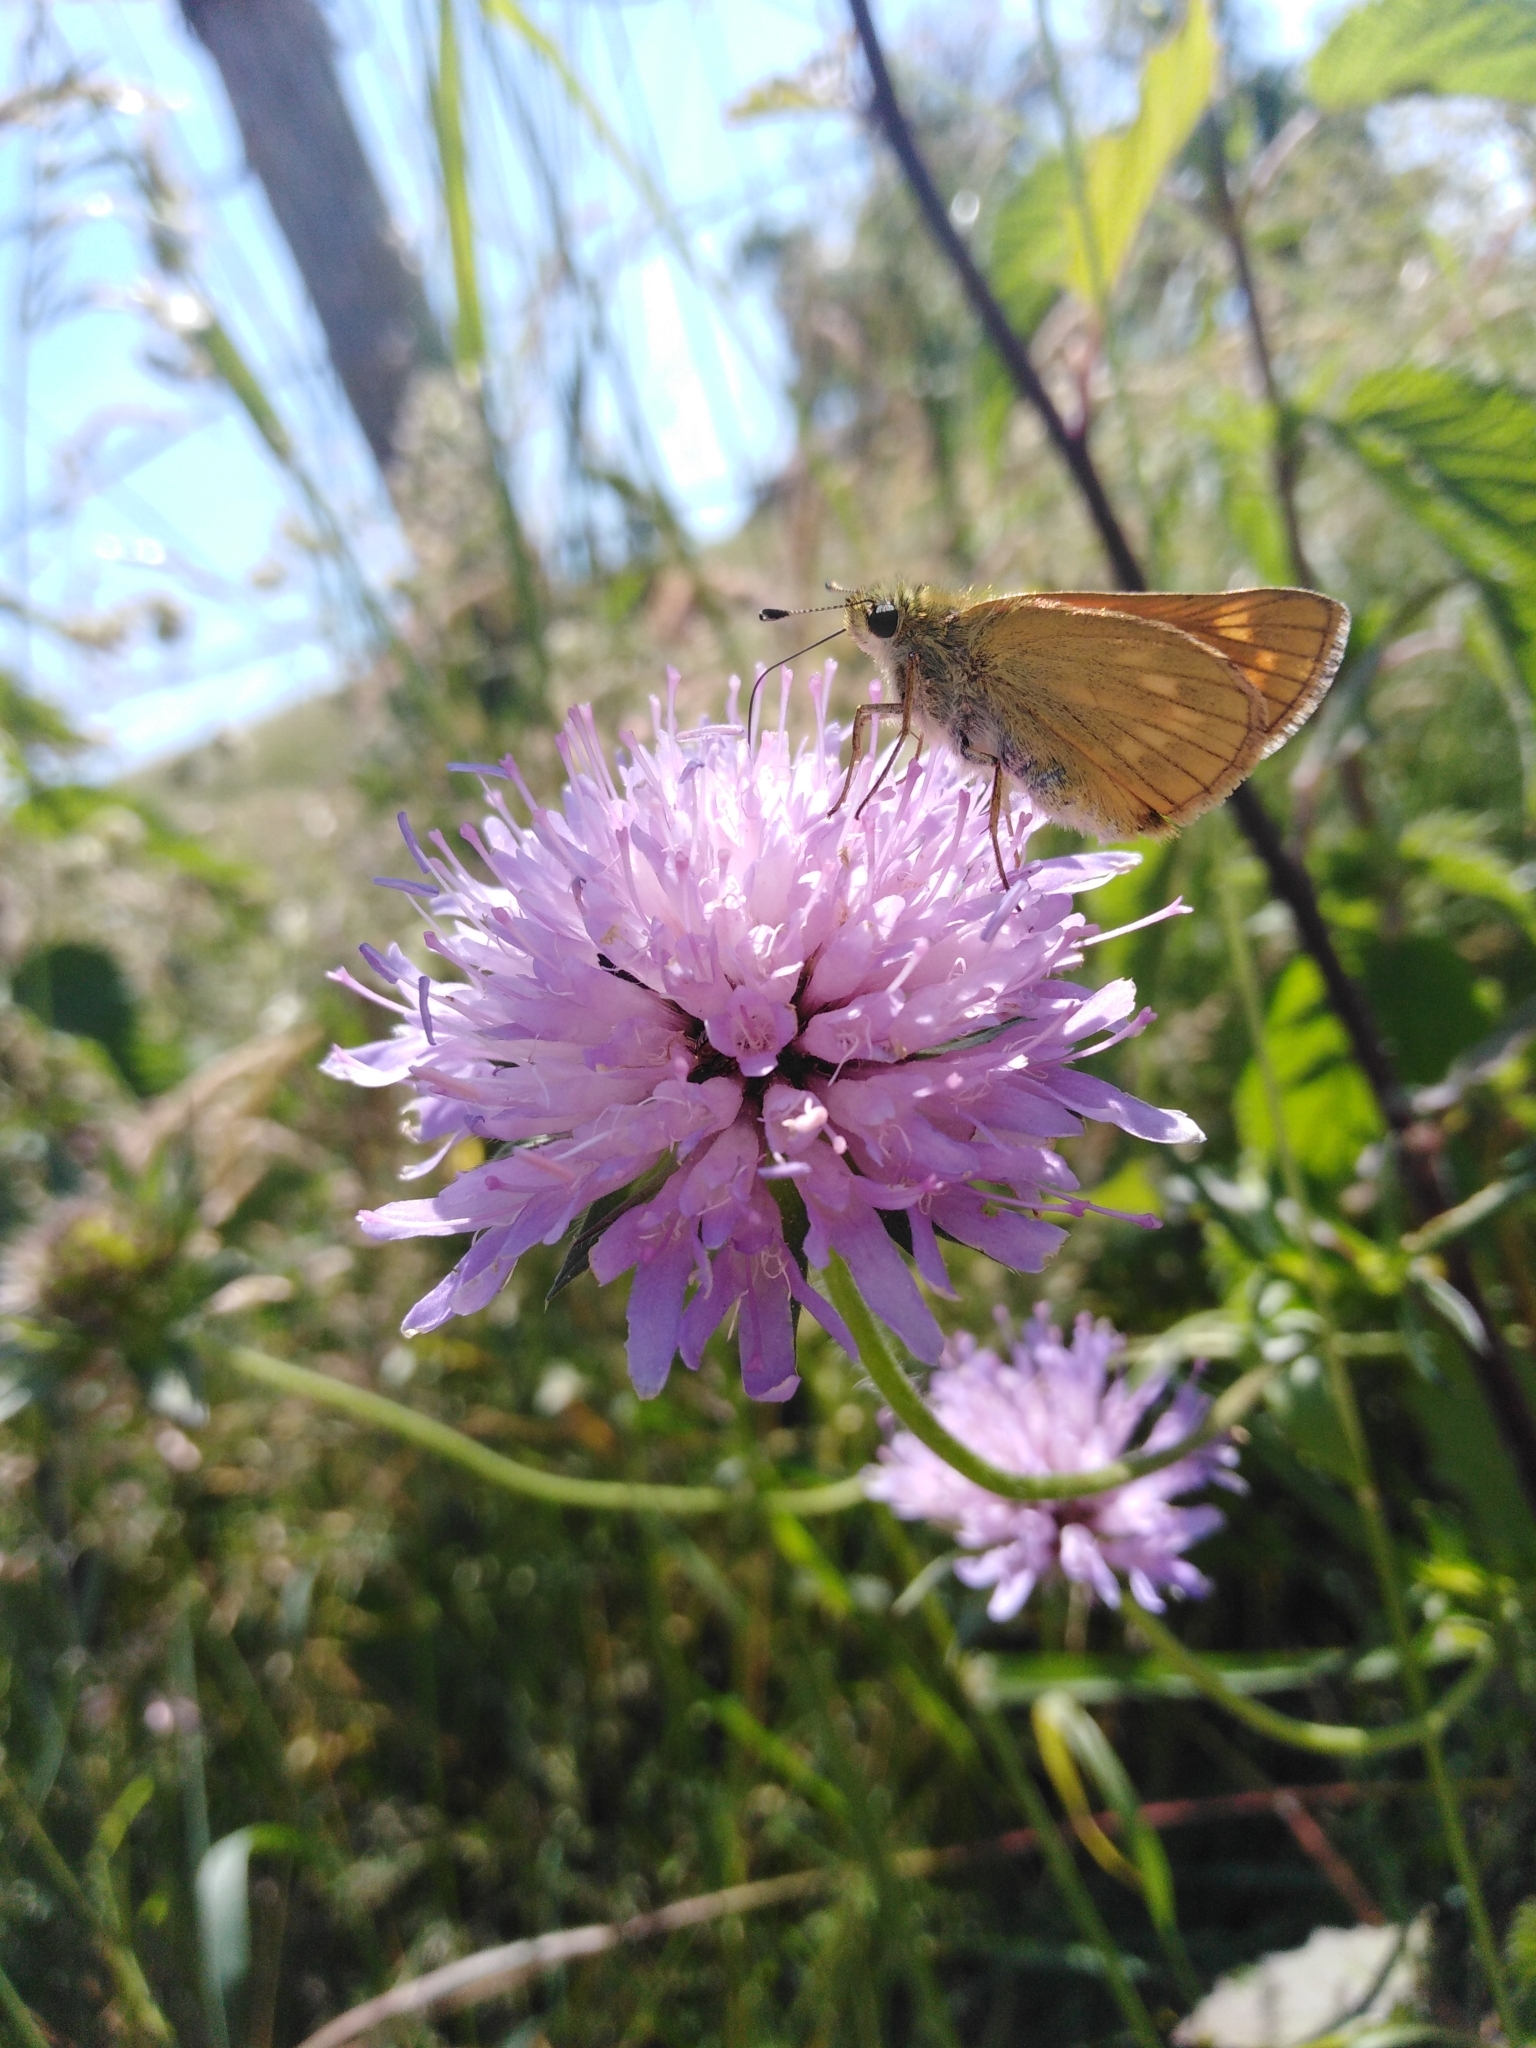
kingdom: Animalia
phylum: Arthropoda
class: Insecta
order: Lepidoptera
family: Hesperiidae
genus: Ochlodes
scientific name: Ochlodes venata
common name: Large skipper
